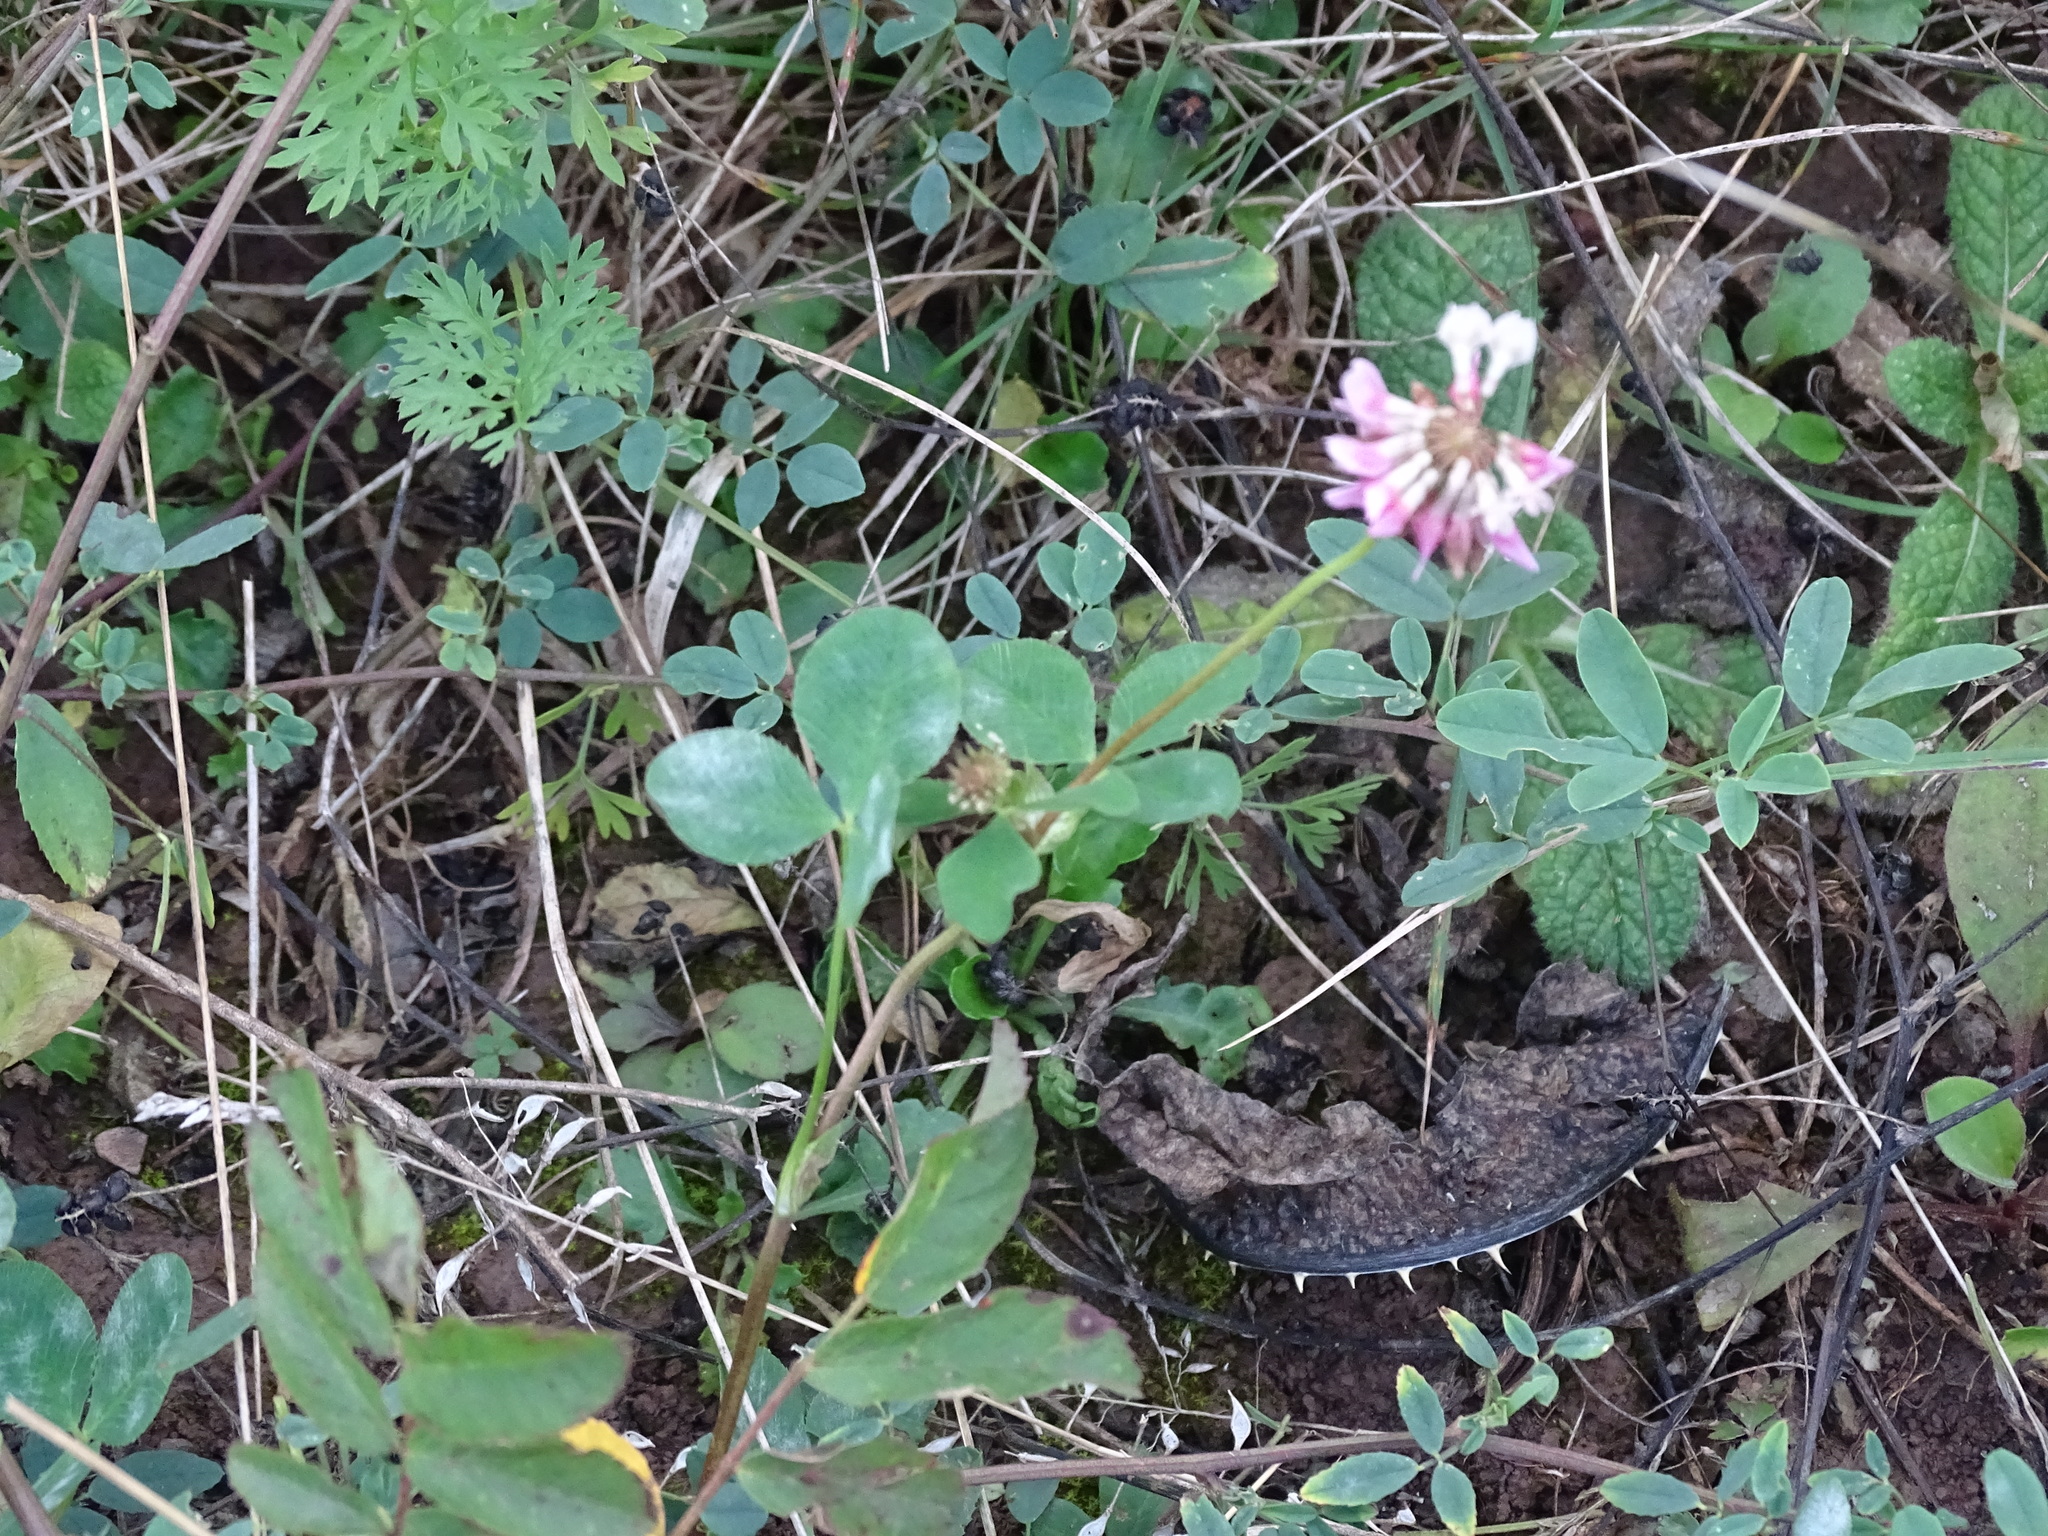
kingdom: Plantae
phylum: Tracheophyta
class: Magnoliopsida
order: Fabales
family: Fabaceae
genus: Trifolium
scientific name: Trifolium hybridum
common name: Alsike clover
